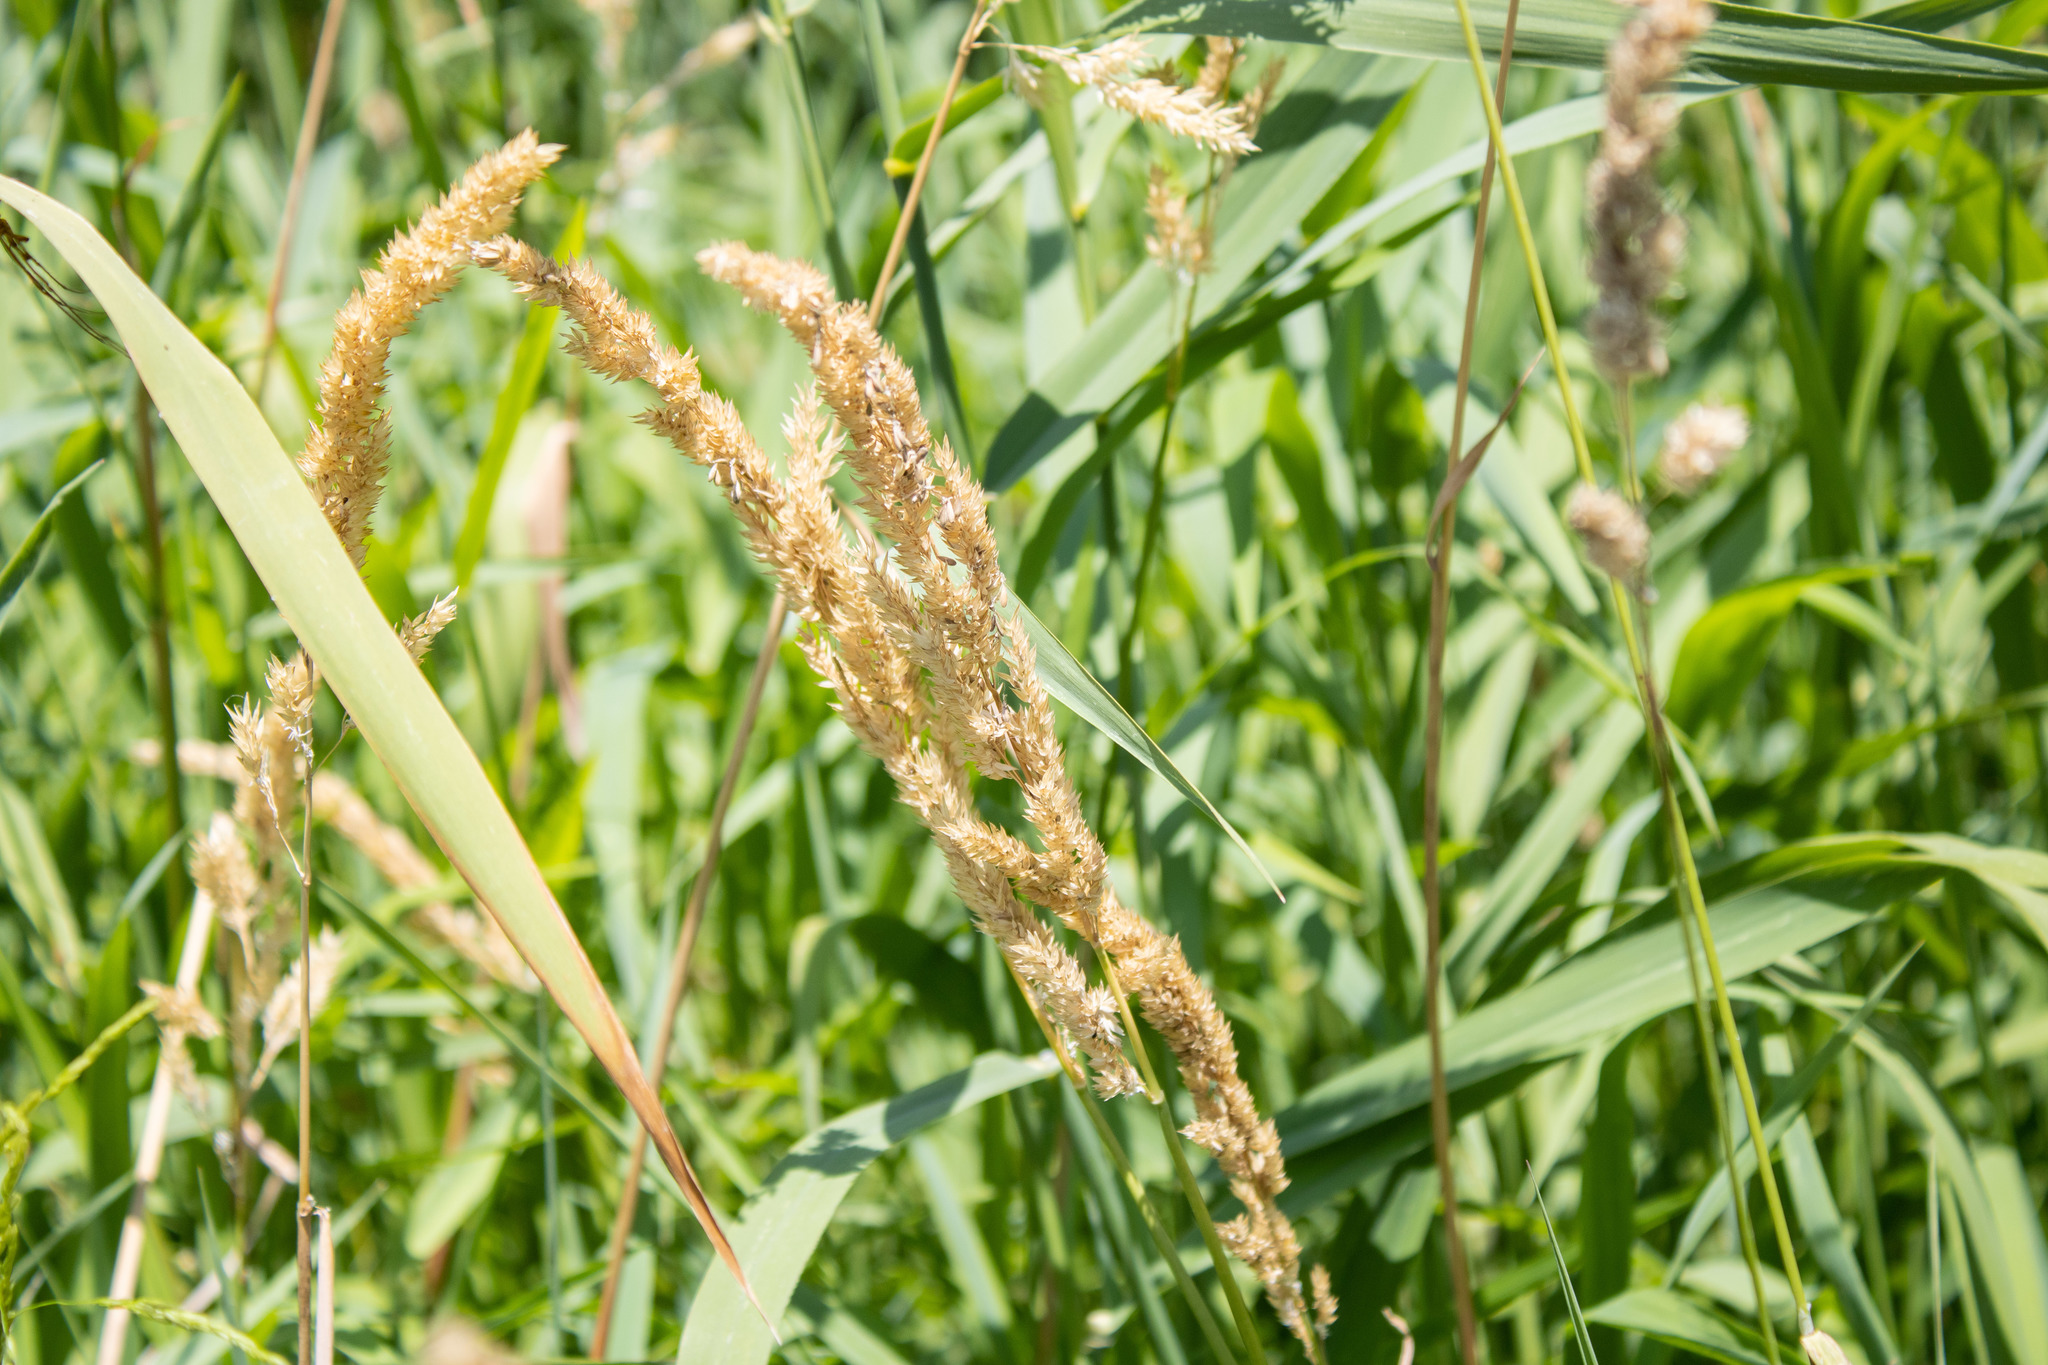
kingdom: Plantae
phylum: Tracheophyta
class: Liliopsida
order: Poales
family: Poaceae
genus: Phalaris
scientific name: Phalaris arundinacea
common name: Reed canary-grass
